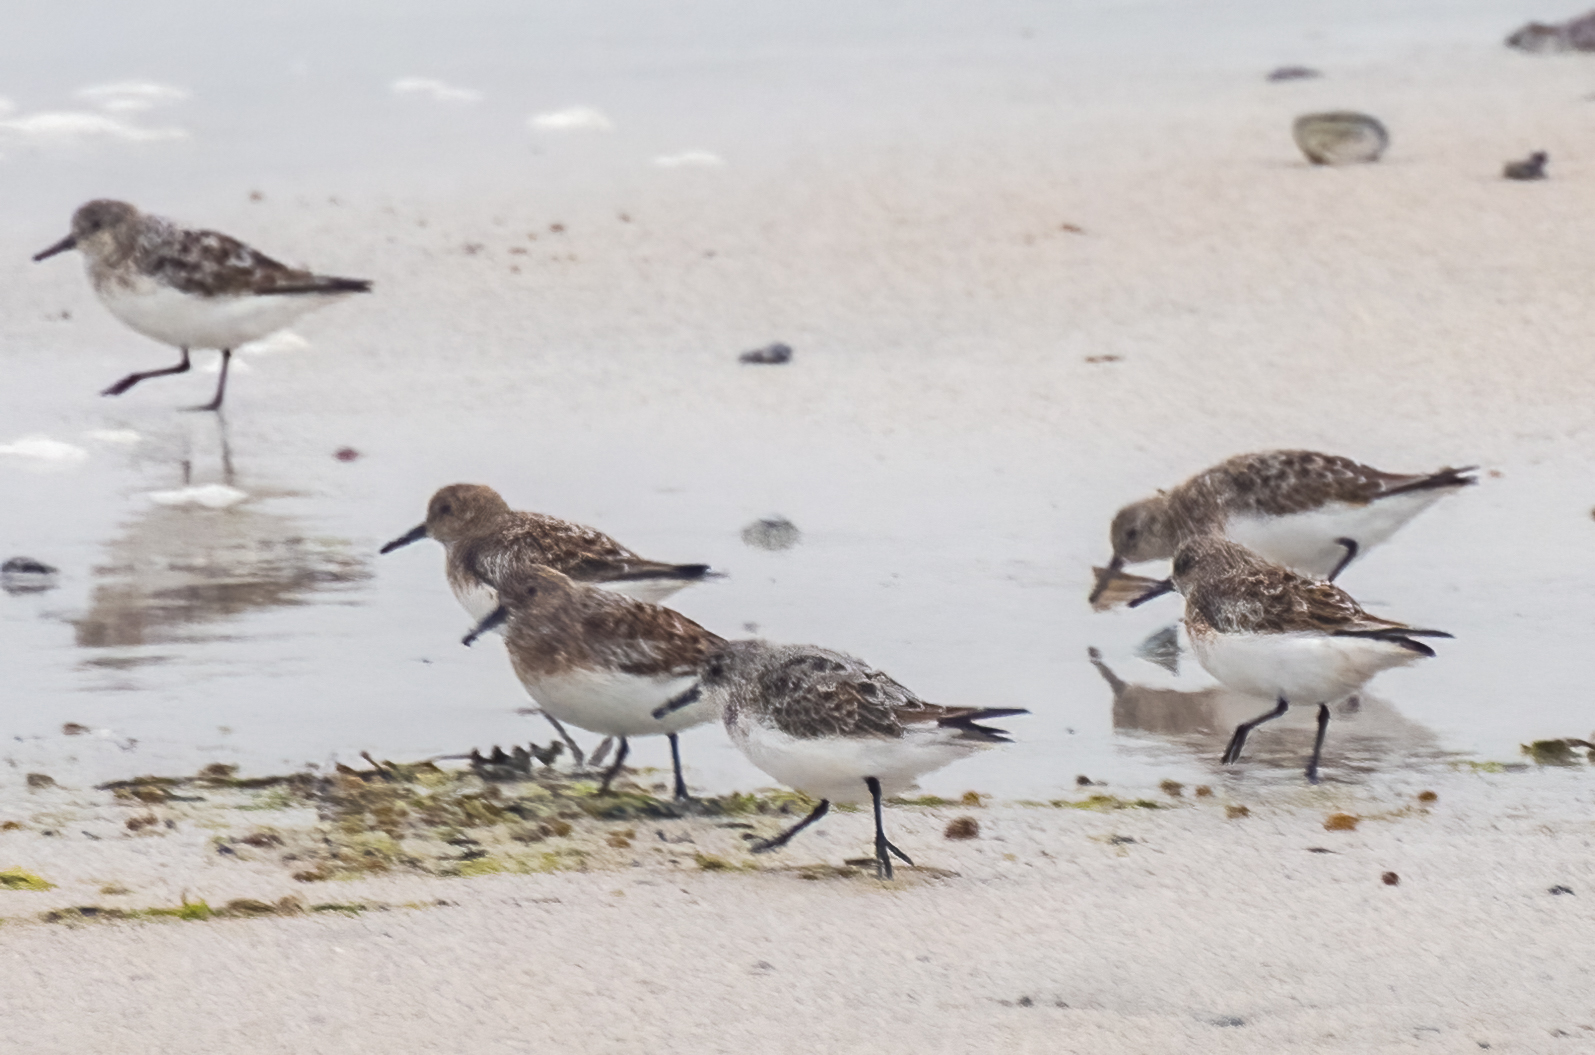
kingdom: Animalia
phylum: Chordata
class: Aves
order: Charadriiformes
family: Scolopacidae
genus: Calidris
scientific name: Calidris alba
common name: Sanderling
